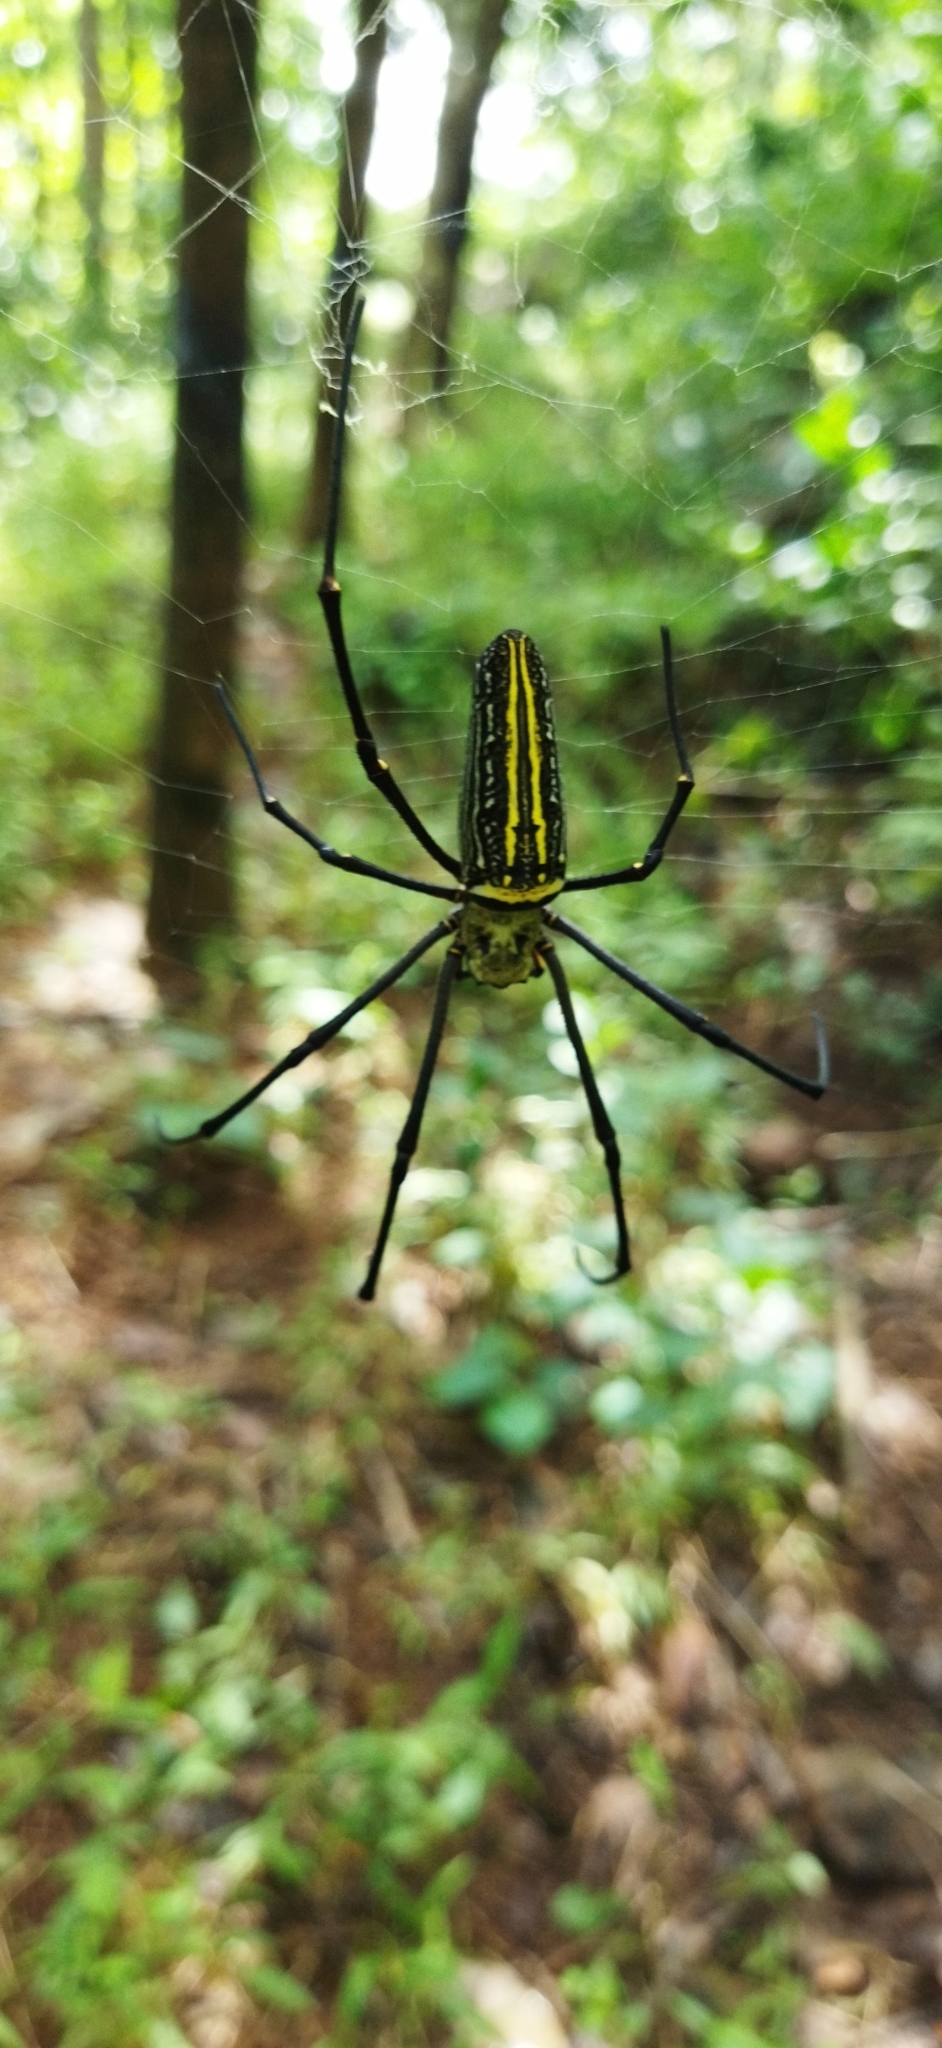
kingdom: Animalia
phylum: Arthropoda
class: Arachnida
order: Araneae
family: Araneidae
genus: Nephila
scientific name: Nephila pilipes
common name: Giant golden orb weaver
